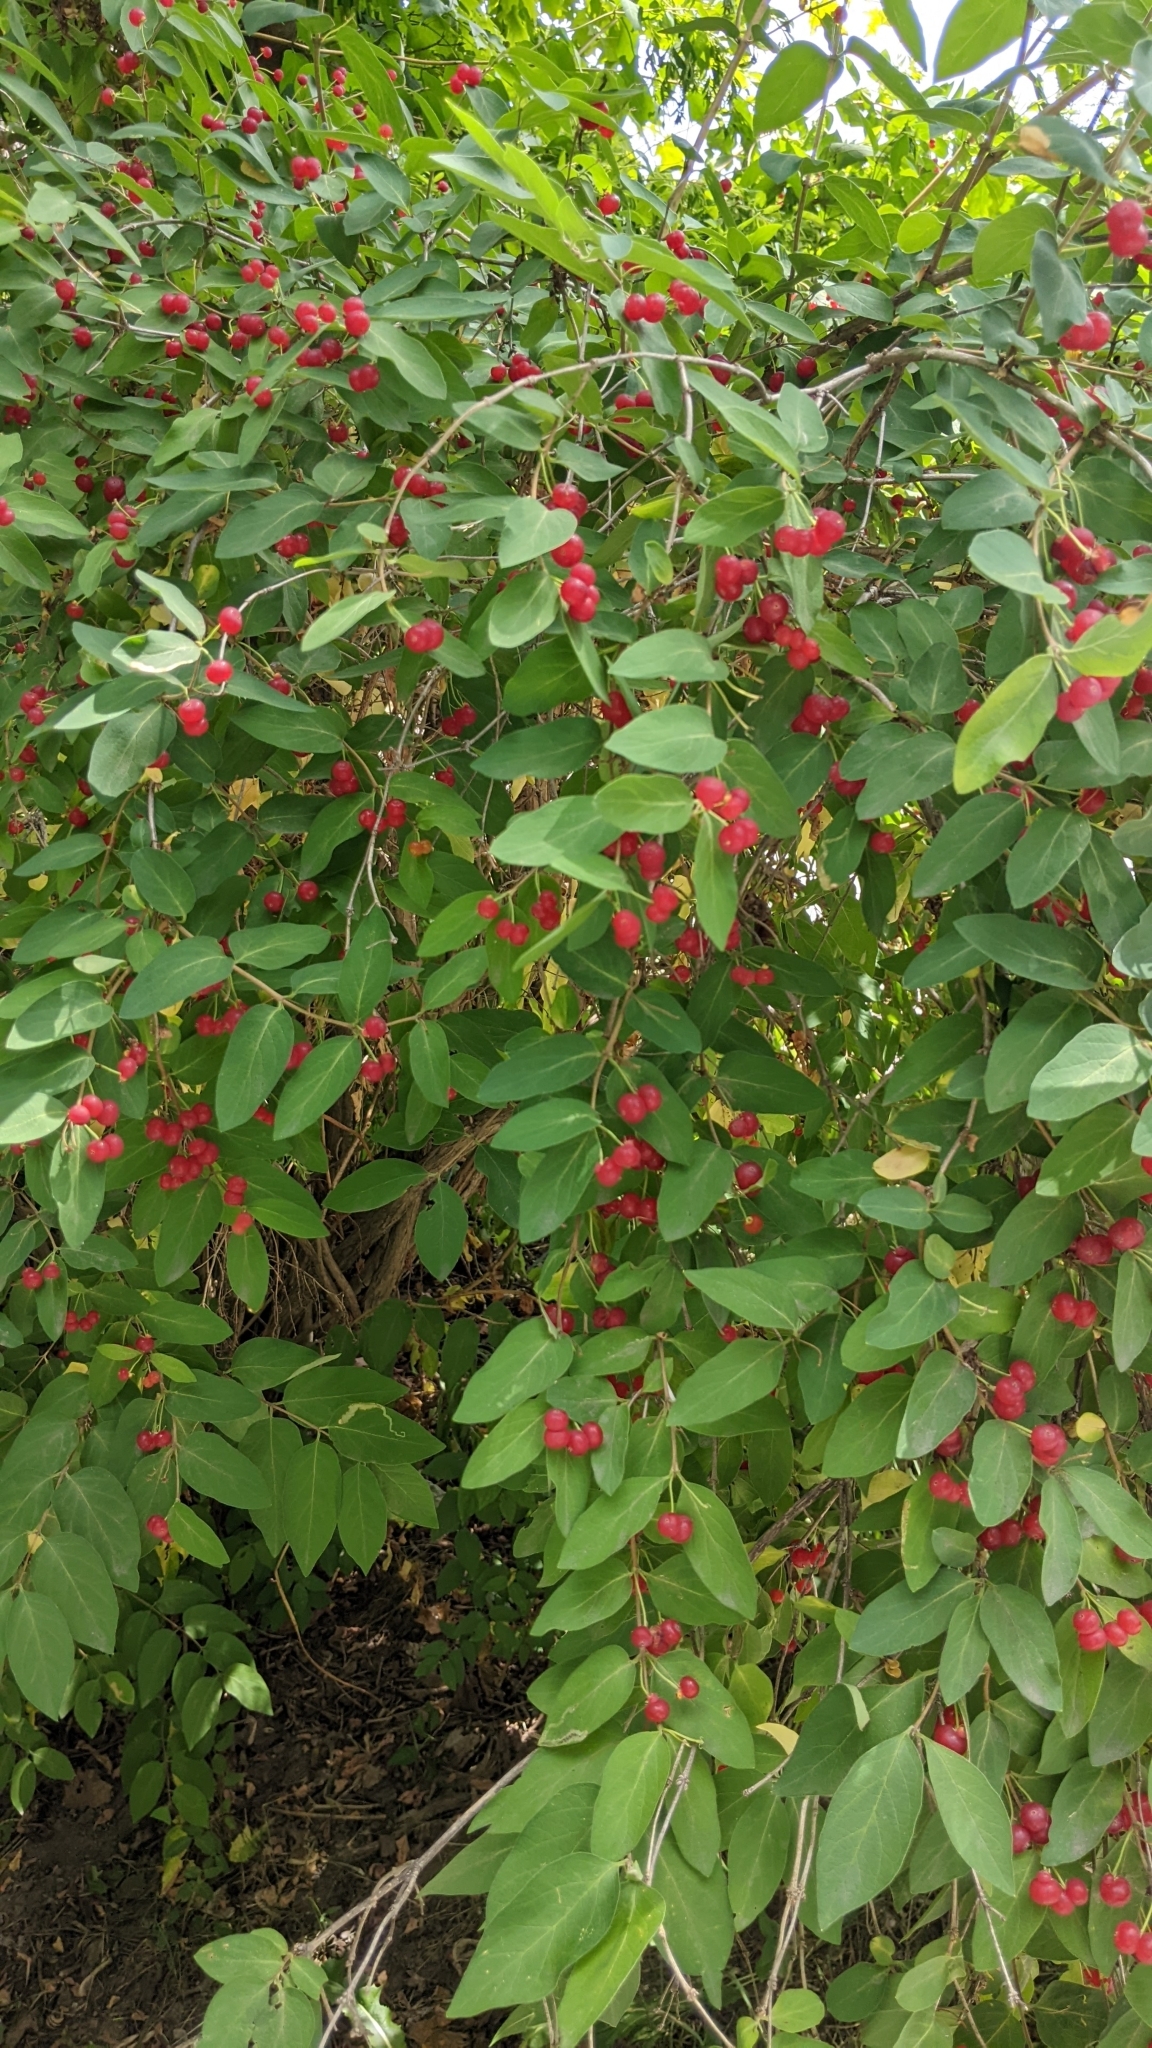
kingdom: Plantae
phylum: Tracheophyta
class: Magnoliopsida
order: Dipsacales
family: Caprifoliaceae
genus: Lonicera
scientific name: Lonicera
